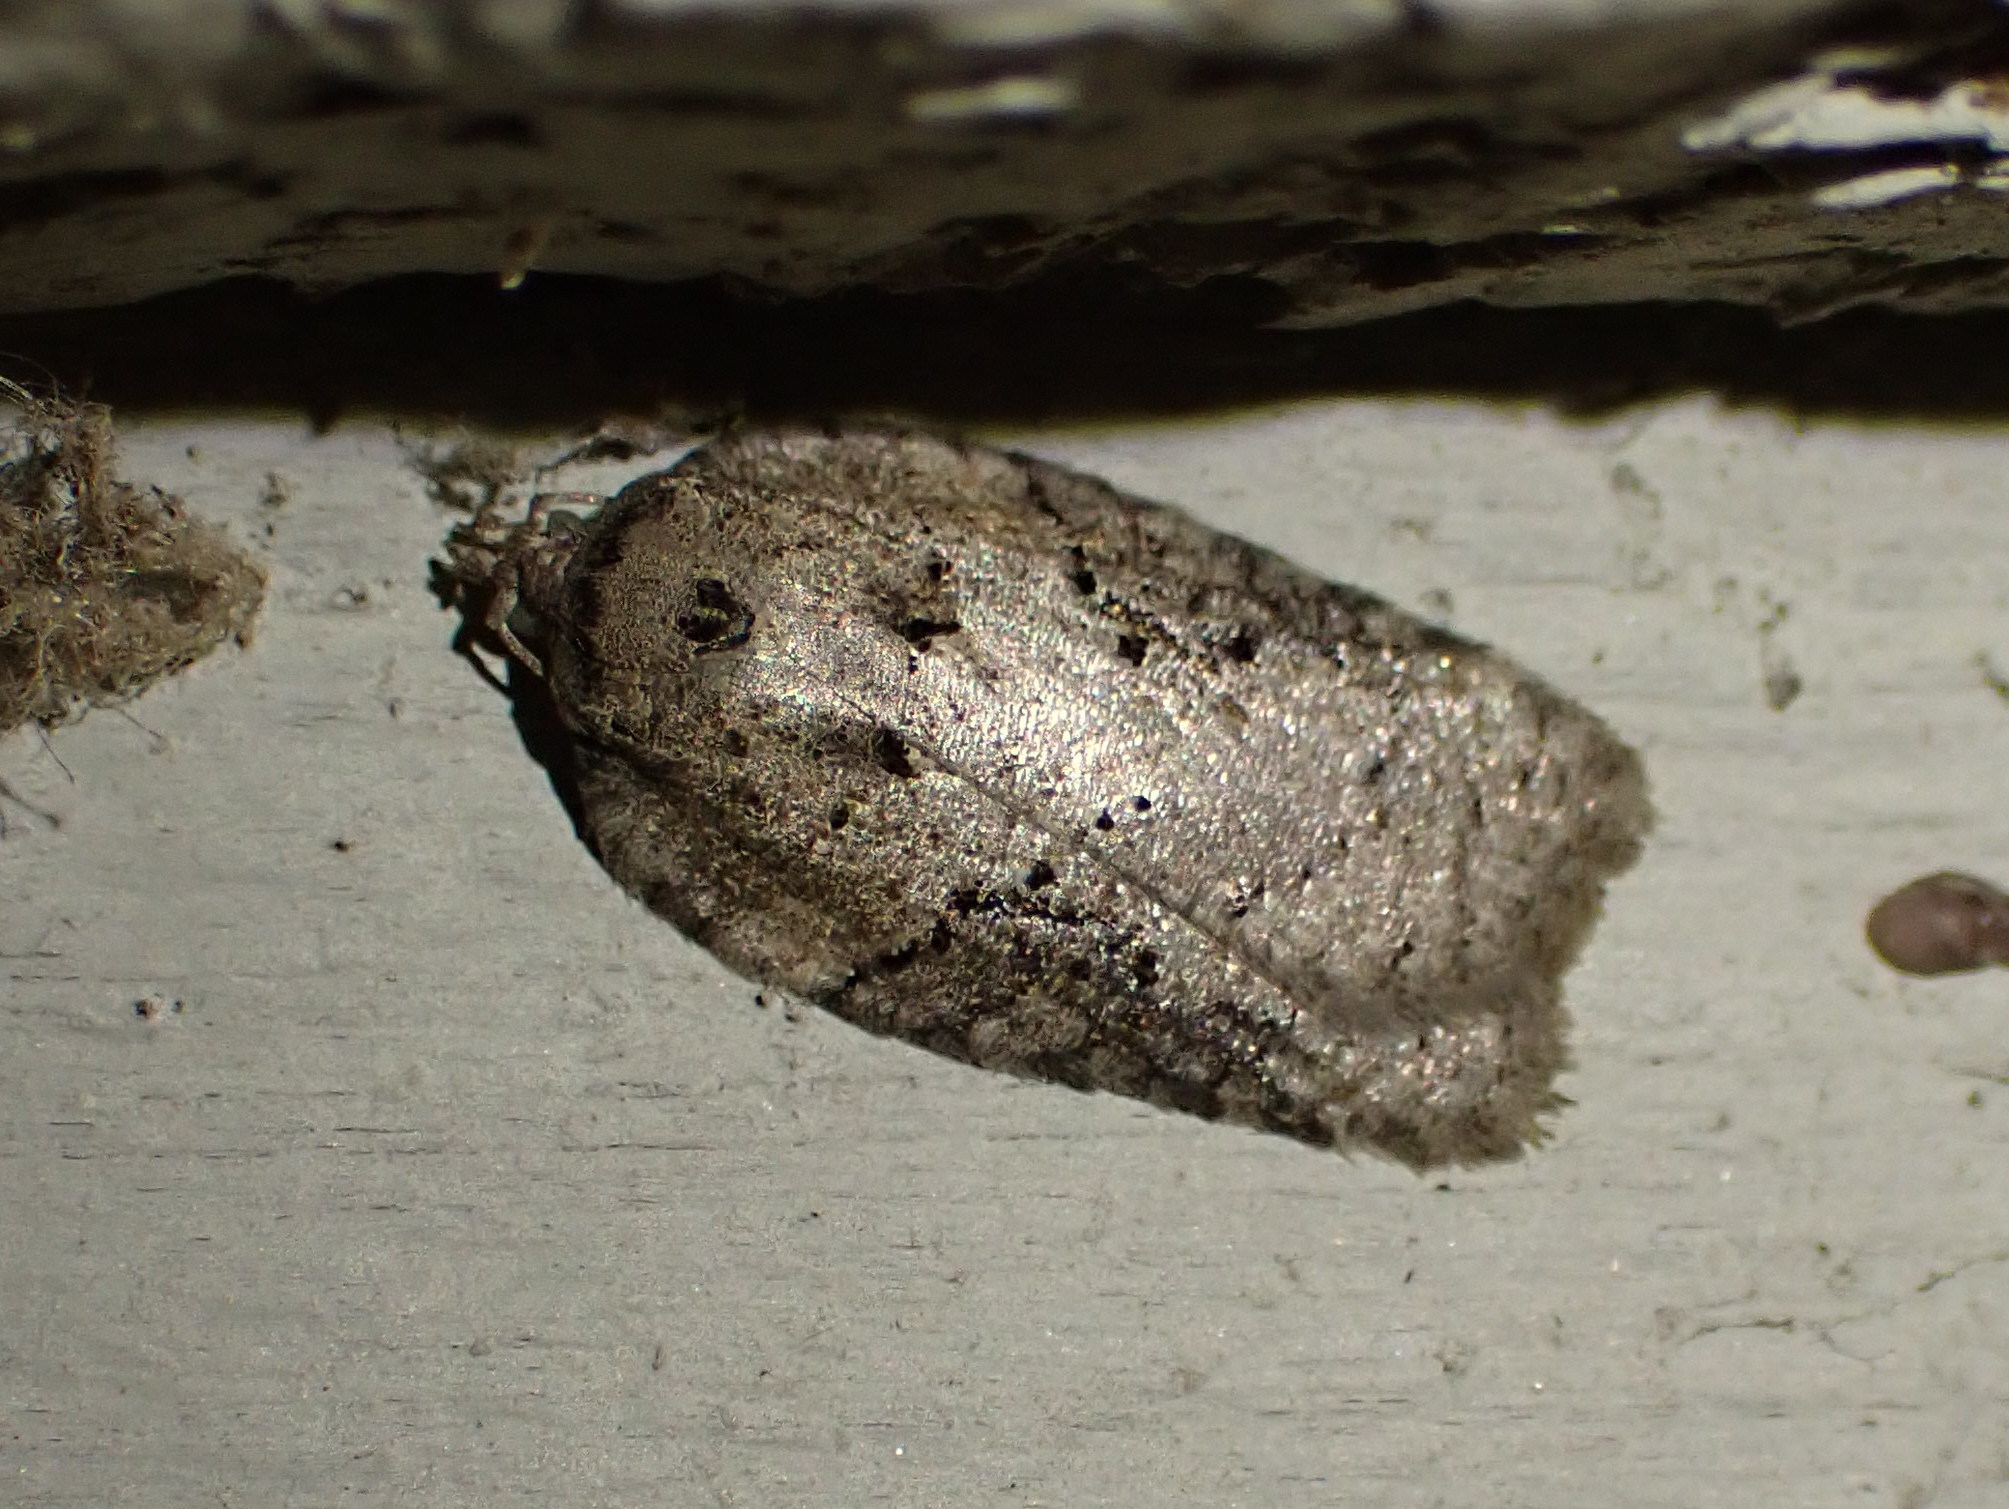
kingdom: Animalia
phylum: Arthropoda
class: Insecta
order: Lepidoptera
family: Tortricidae
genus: Acleris
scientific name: Acleris chalybeana
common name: Lesser maple leafroller
